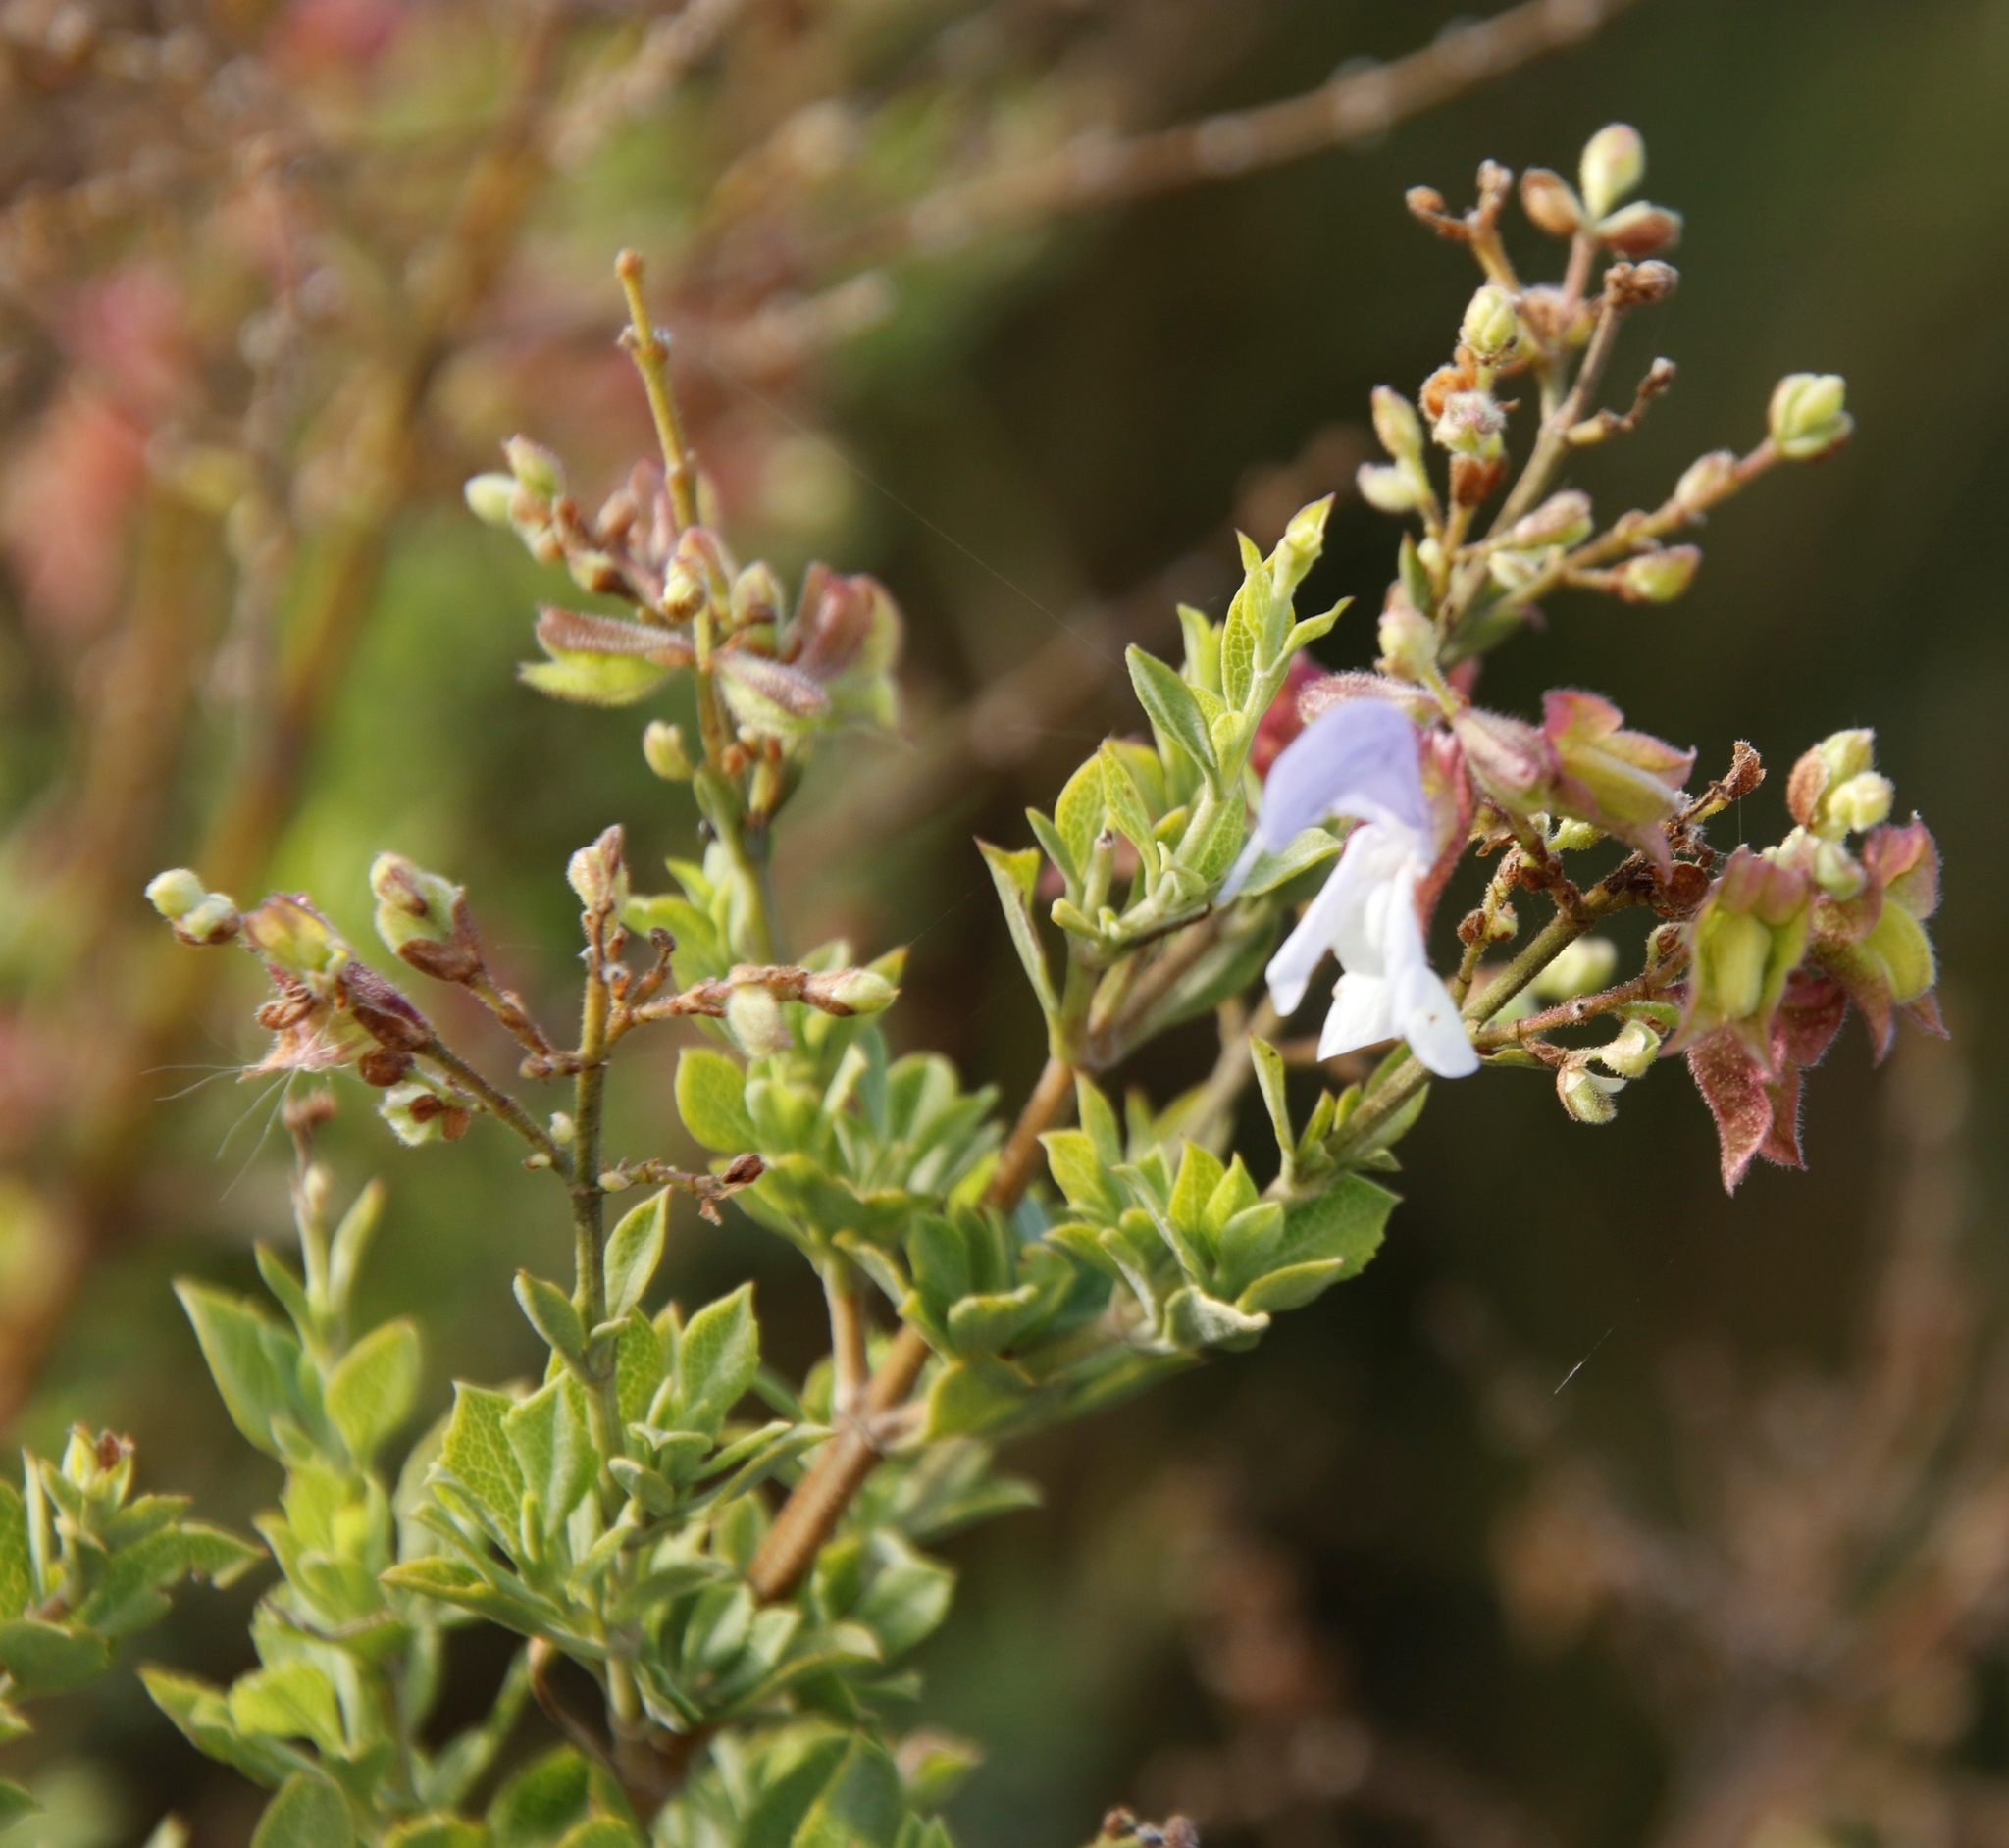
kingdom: Plantae
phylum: Tracheophyta
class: Magnoliopsida
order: Lamiales
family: Lamiaceae
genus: Salvia
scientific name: Salvia chamelaeagnea
